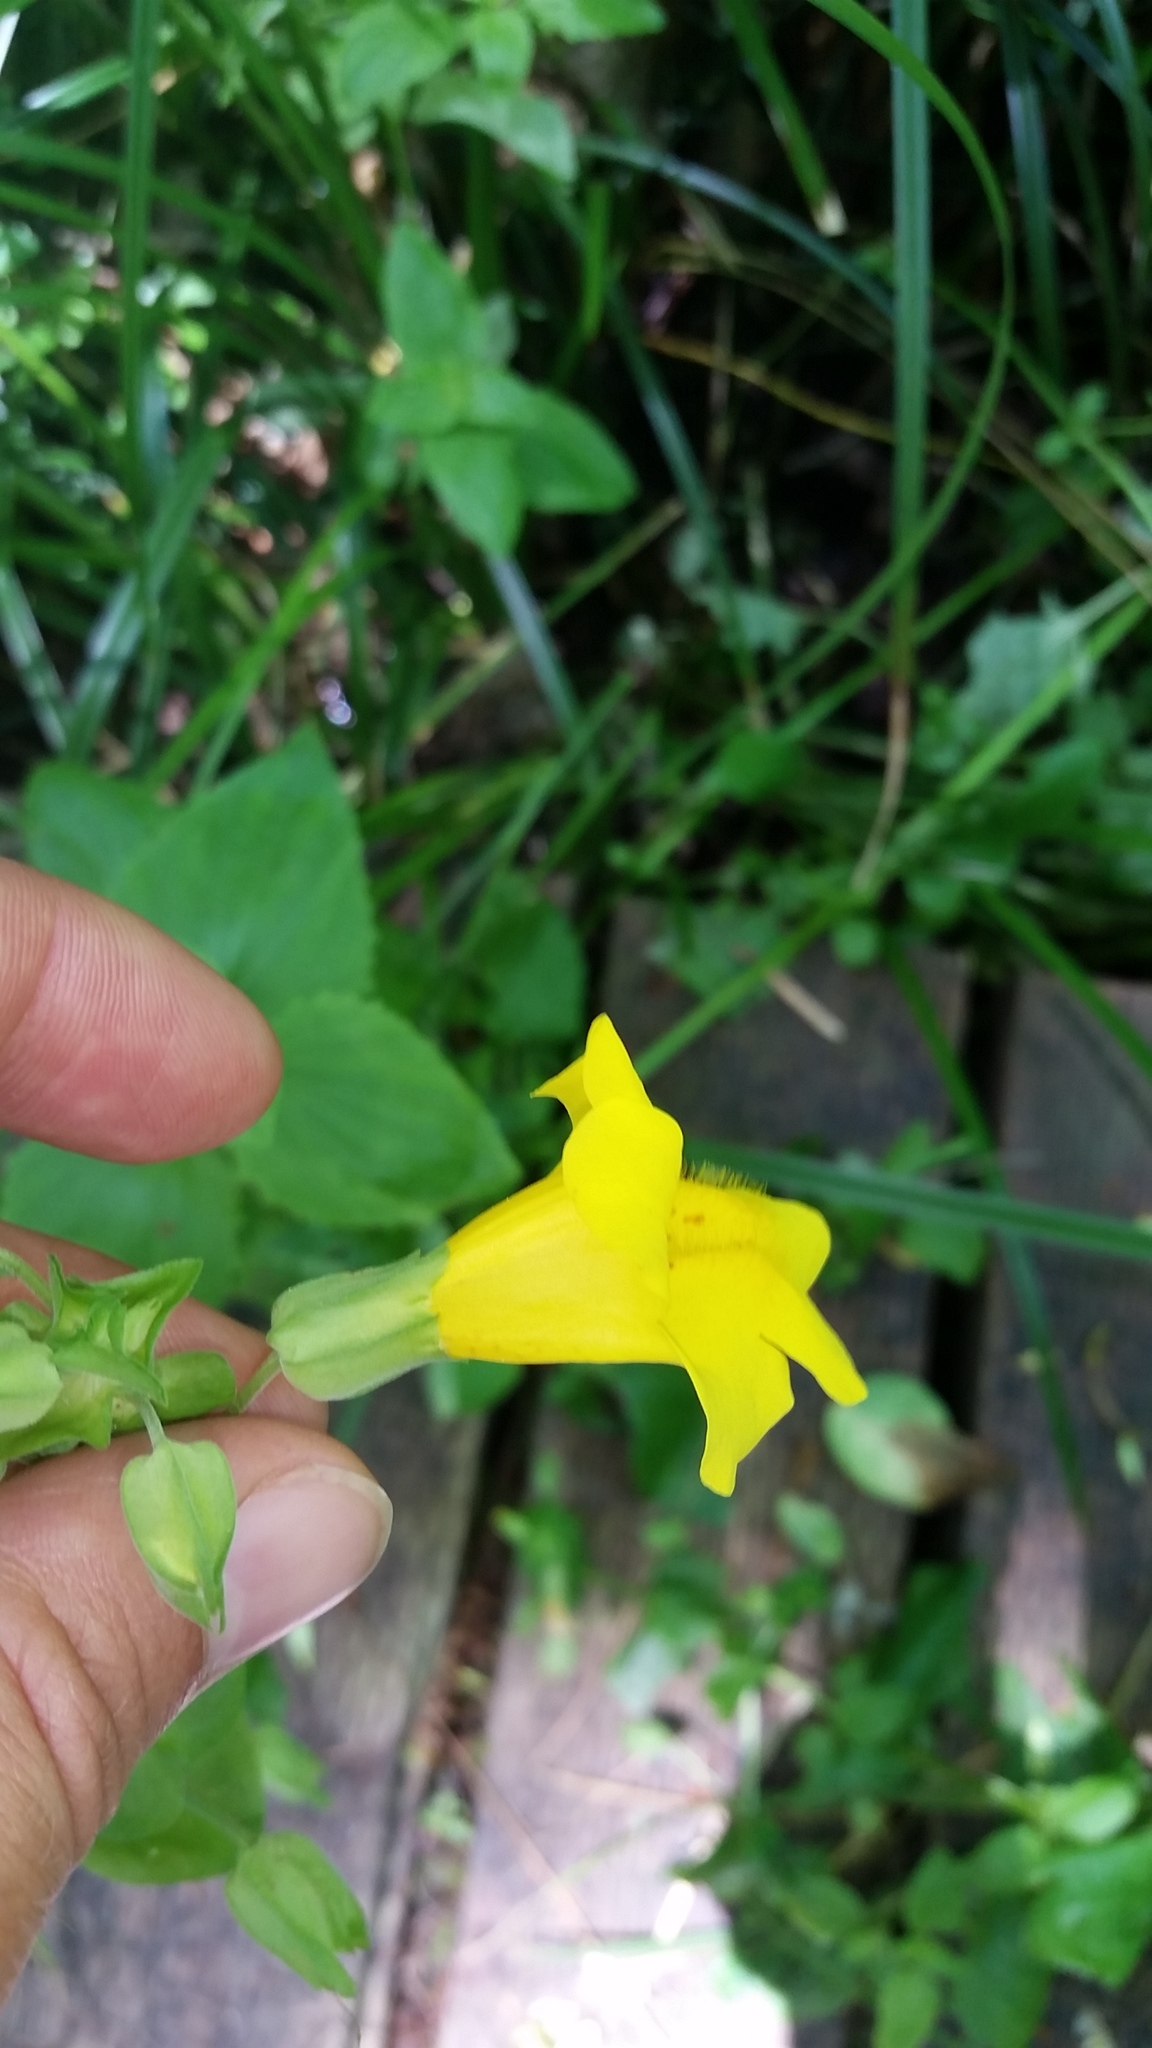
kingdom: Plantae
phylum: Tracheophyta
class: Magnoliopsida
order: Lamiales
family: Phrymaceae
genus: Erythranthe
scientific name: Erythranthe decora
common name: Mannered monkeyflower
